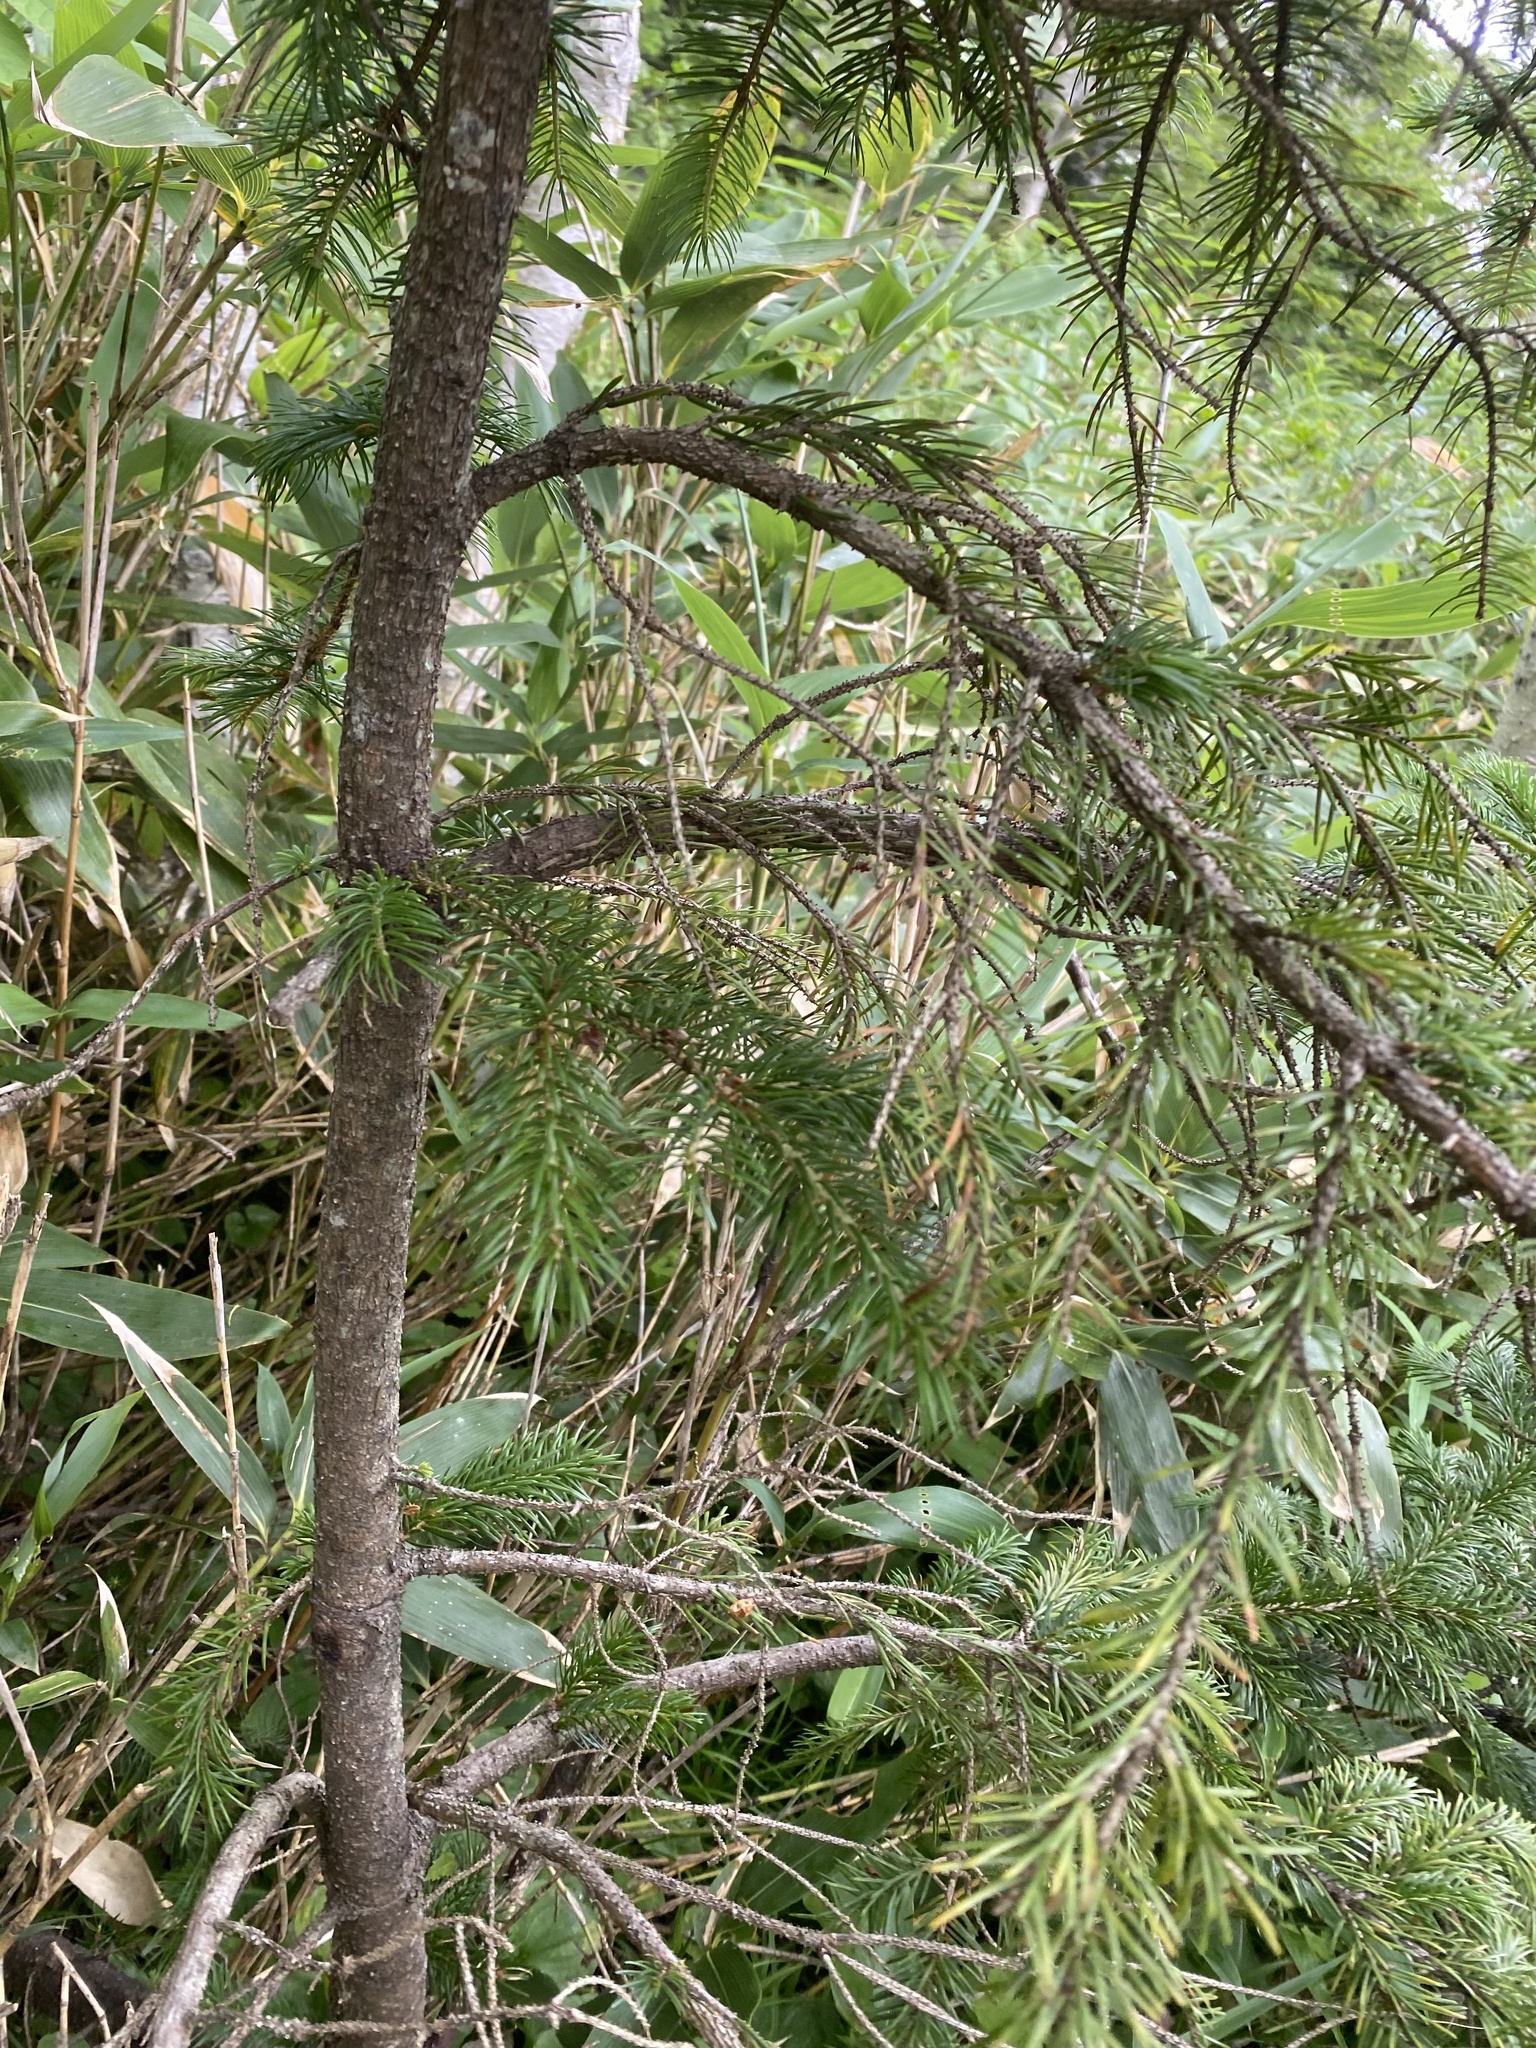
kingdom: Plantae
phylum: Tracheophyta
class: Pinopsida
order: Pinales
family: Pinaceae
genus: Picea
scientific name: Picea jezoensis
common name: Yeddo spruce
